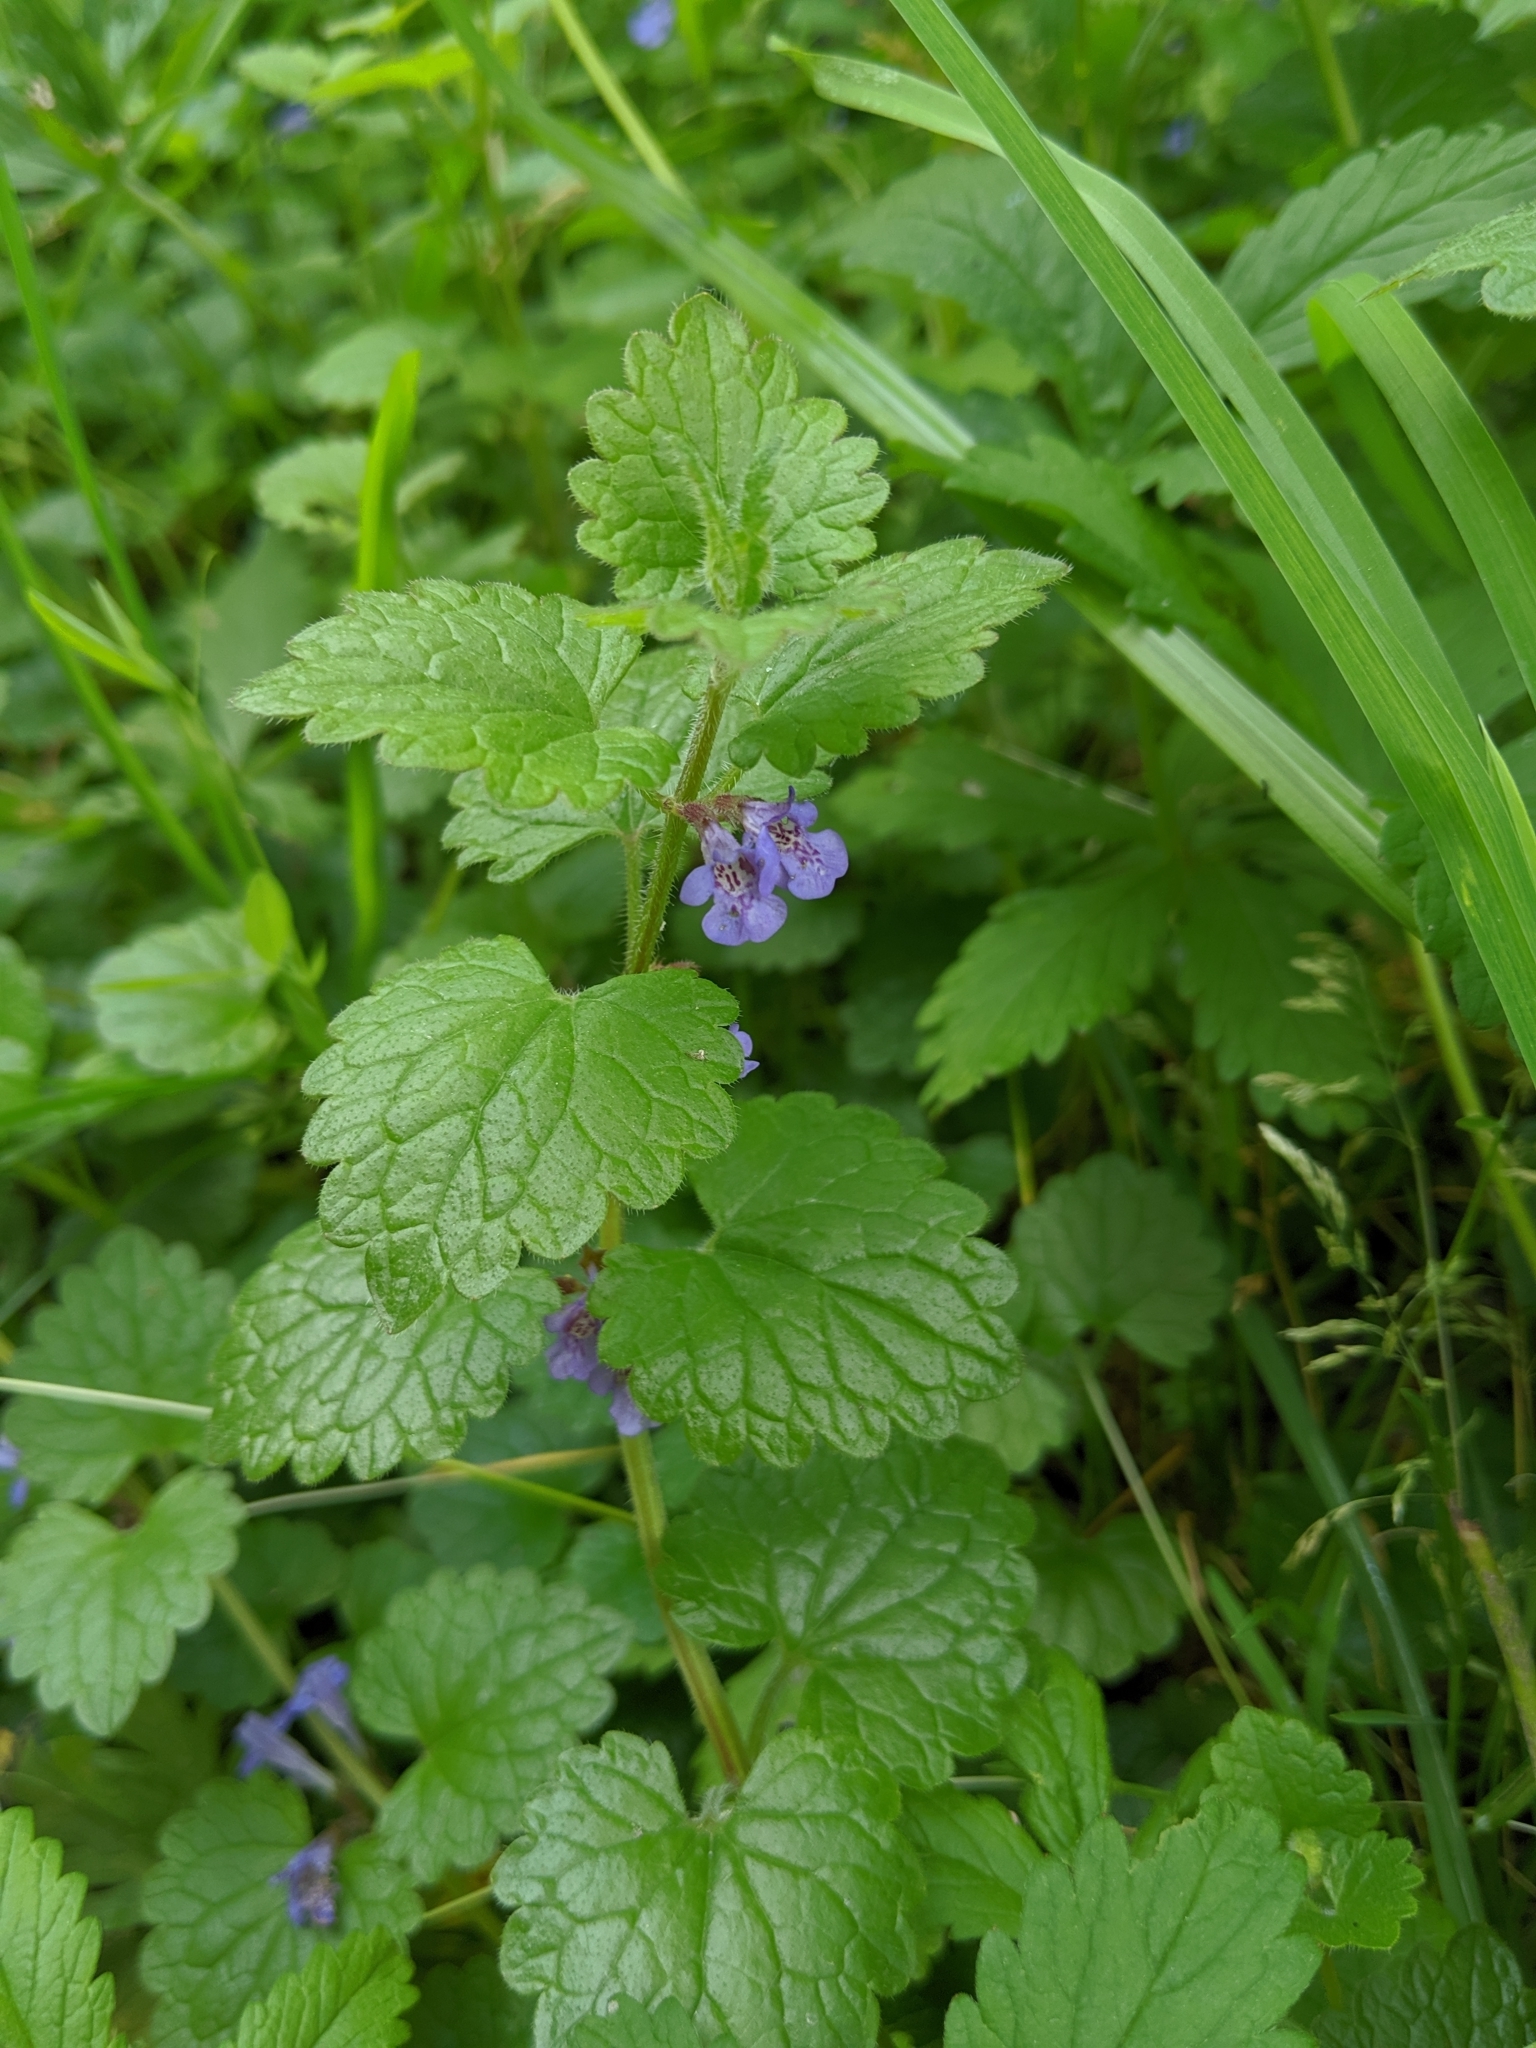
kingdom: Plantae
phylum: Tracheophyta
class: Magnoliopsida
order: Lamiales
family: Lamiaceae
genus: Glechoma
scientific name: Glechoma hederacea
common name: Ground ivy
